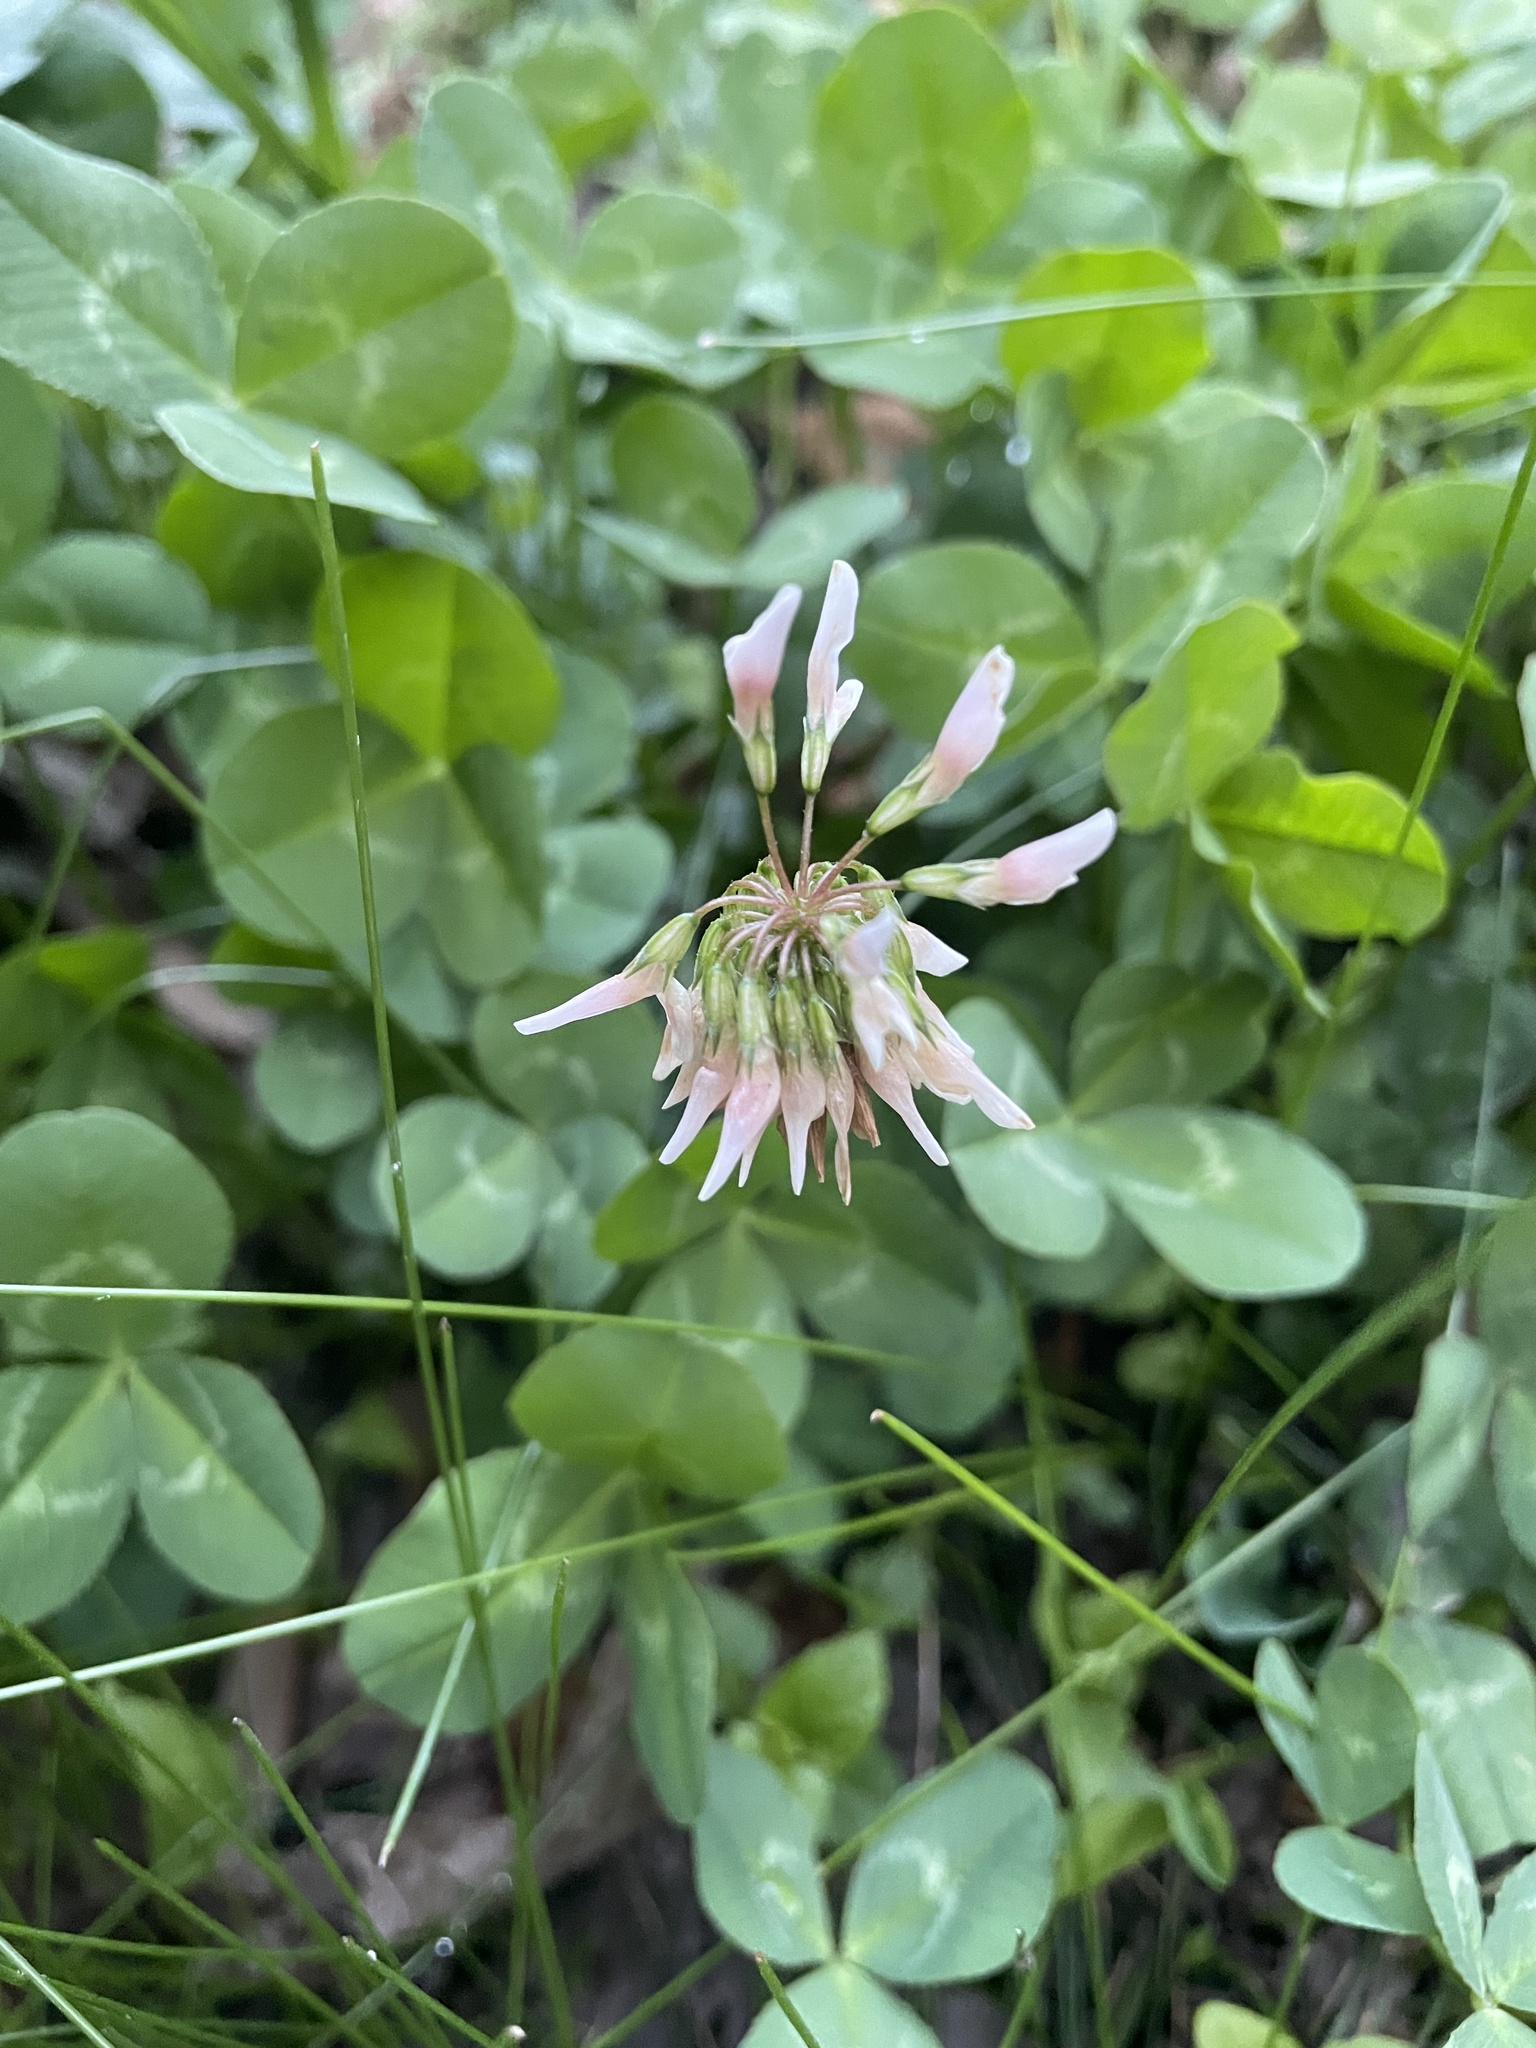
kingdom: Plantae
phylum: Tracheophyta
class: Magnoliopsida
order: Fabales
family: Fabaceae
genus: Trifolium
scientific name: Trifolium repens
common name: White clover
